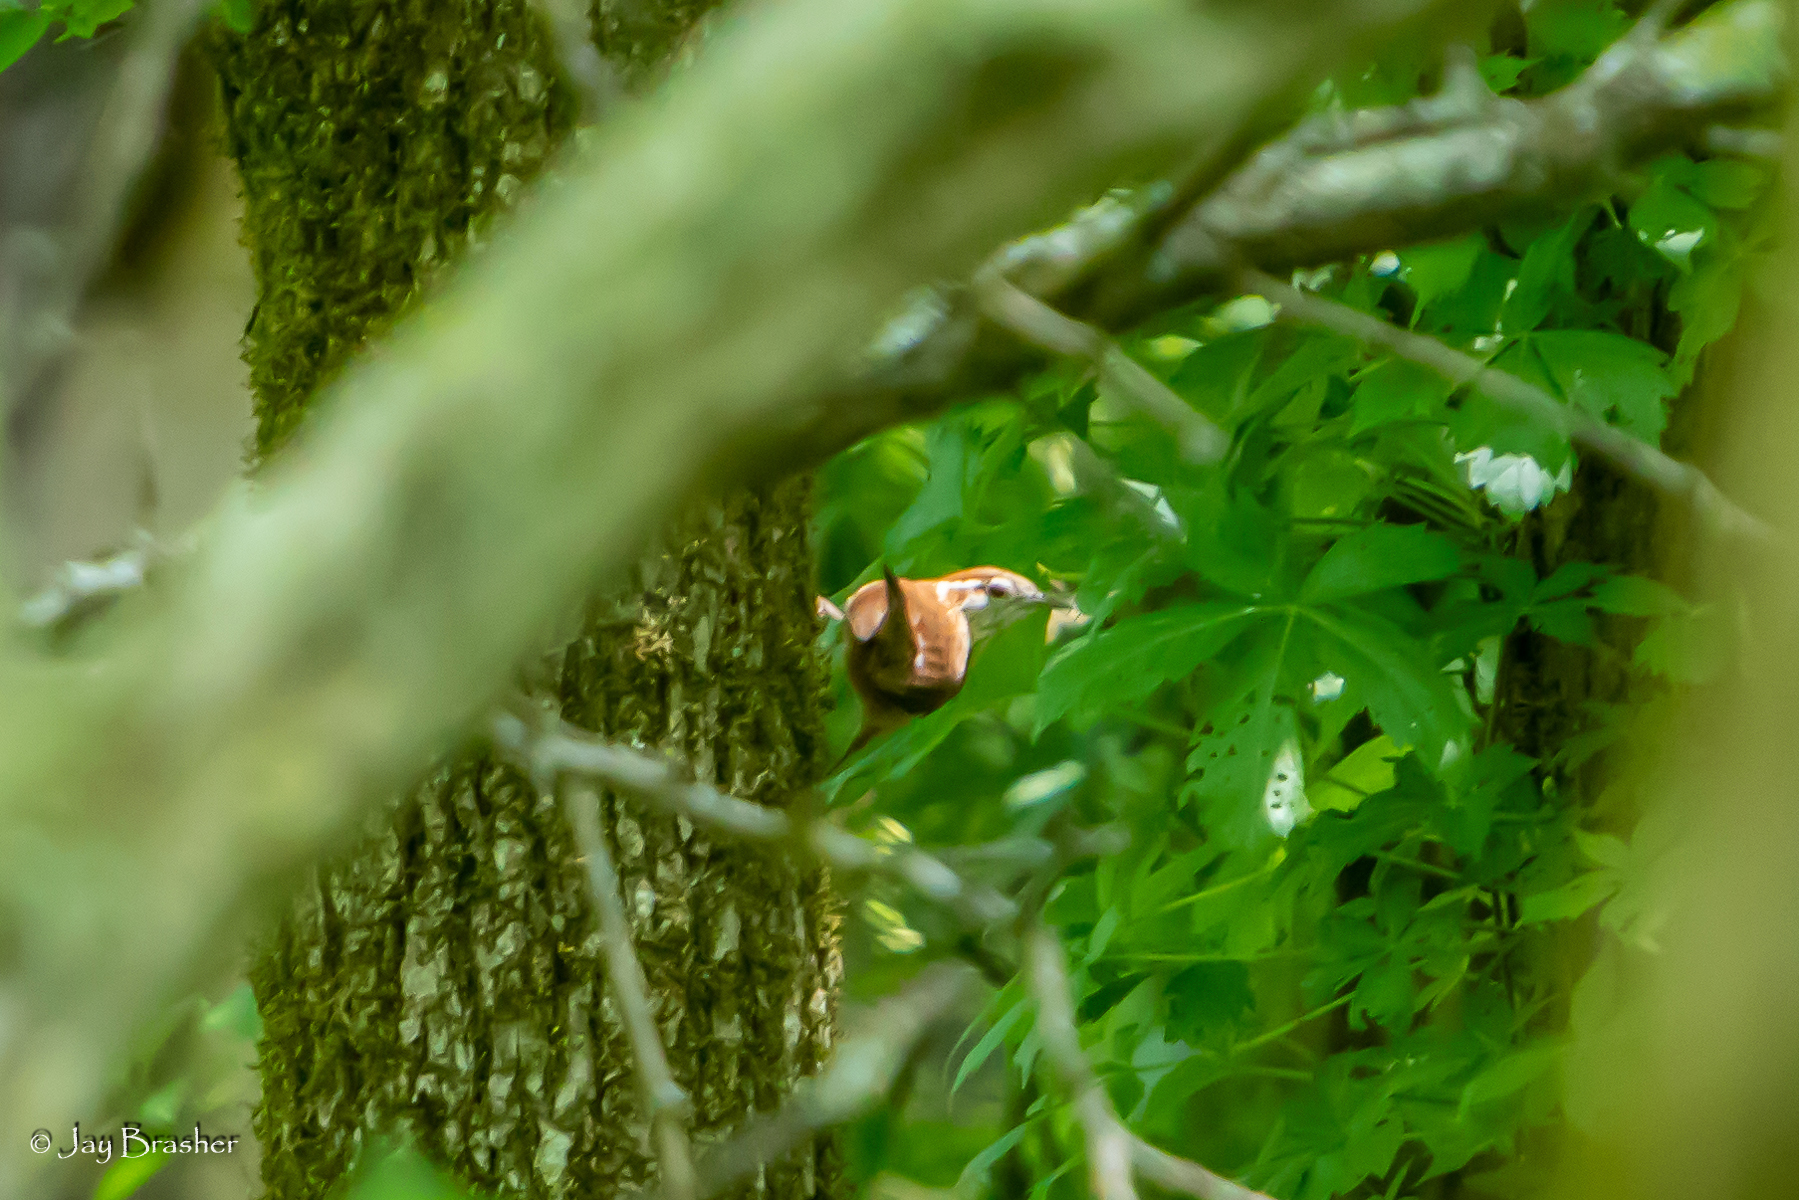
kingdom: Animalia
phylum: Chordata
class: Aves
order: Passeriformes
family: Troglodytidae
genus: Thryothorus
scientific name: Thryothorus ludovicianus
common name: Carolina wren
